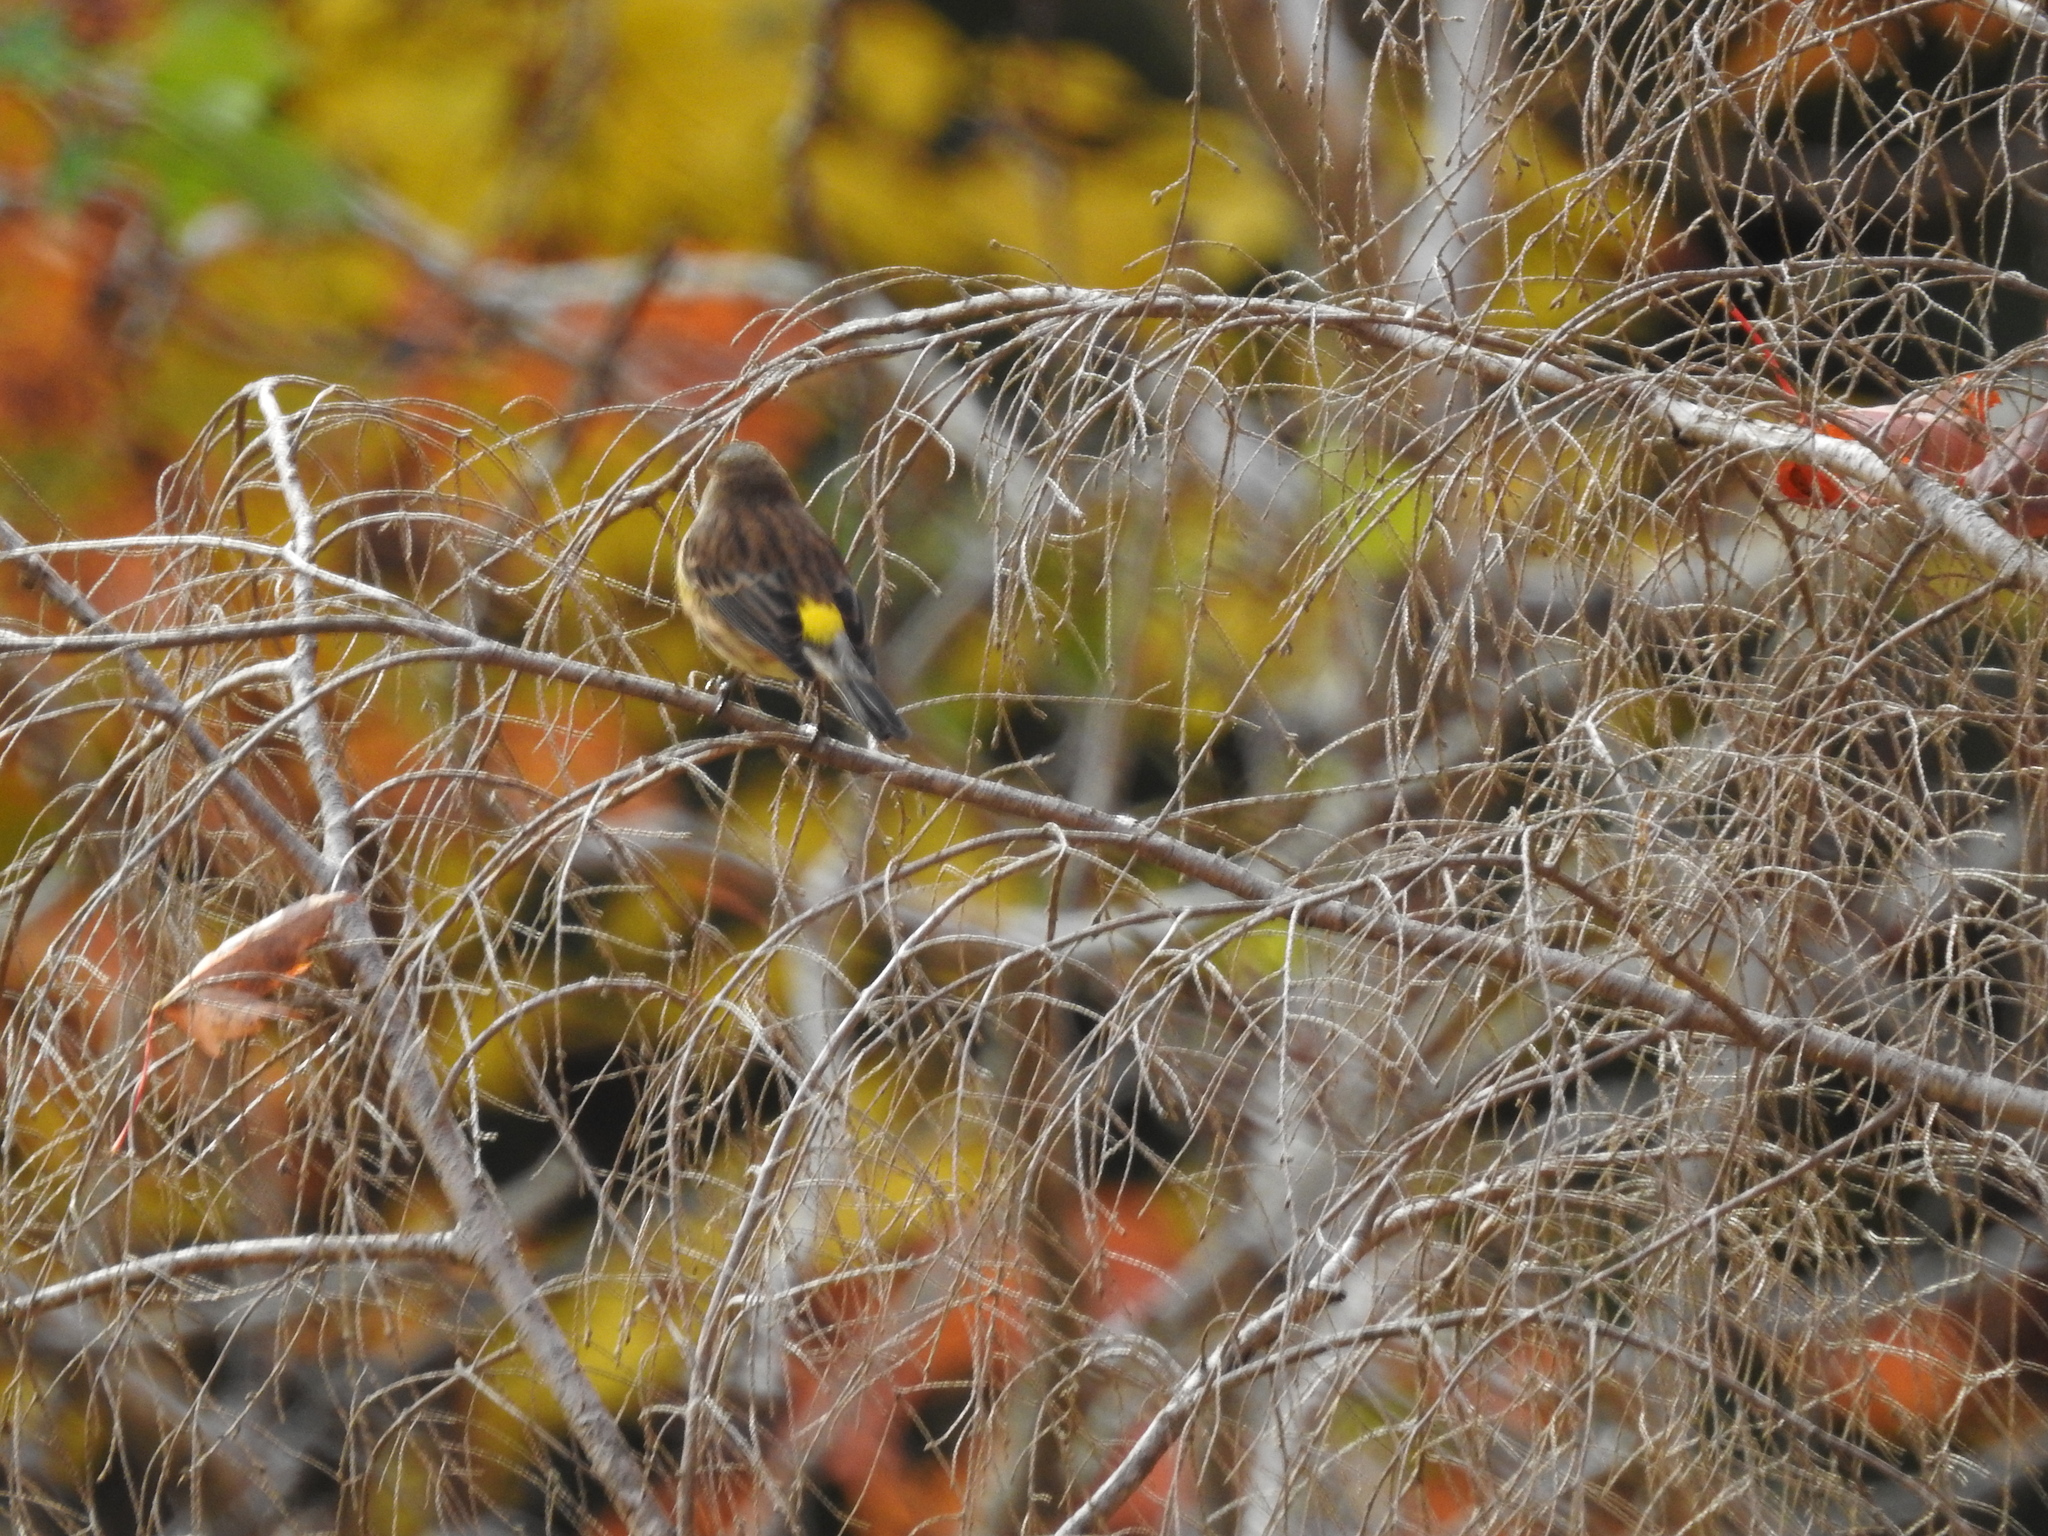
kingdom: Animalia
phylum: Chordata
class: Aves
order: Passeriformes
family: Parulidae
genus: Setophaga
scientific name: Setophaga coronata
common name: Myrtle warbler
